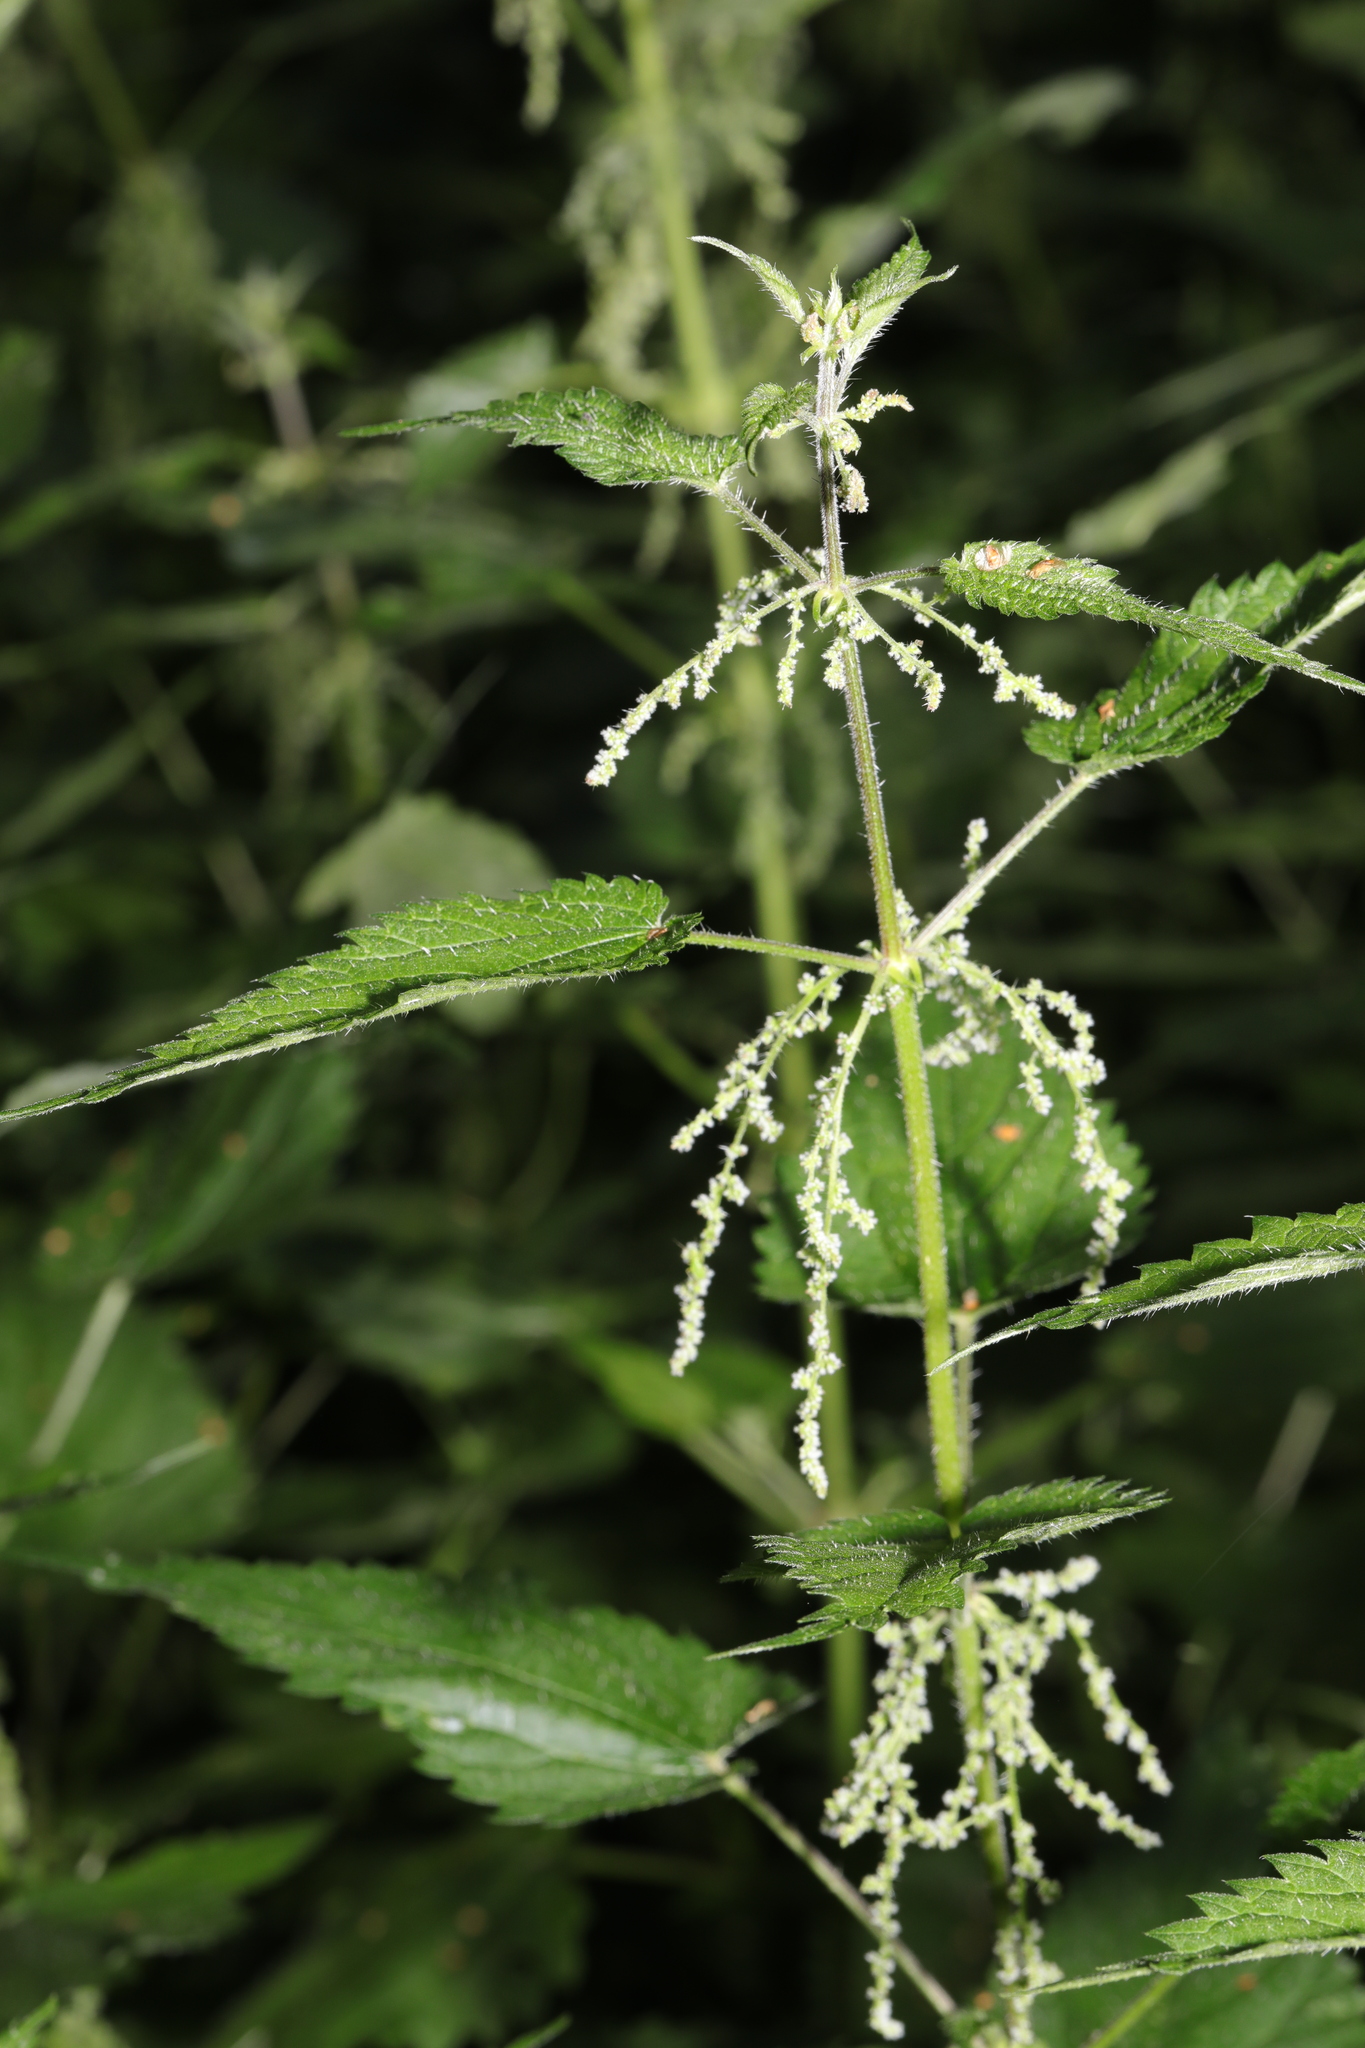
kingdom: Plantae
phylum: Tracheophyta
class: Magnoliopsida
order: Rosales
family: Urticaceae
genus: Urtica
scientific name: Urtica dioica
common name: Common nettle
